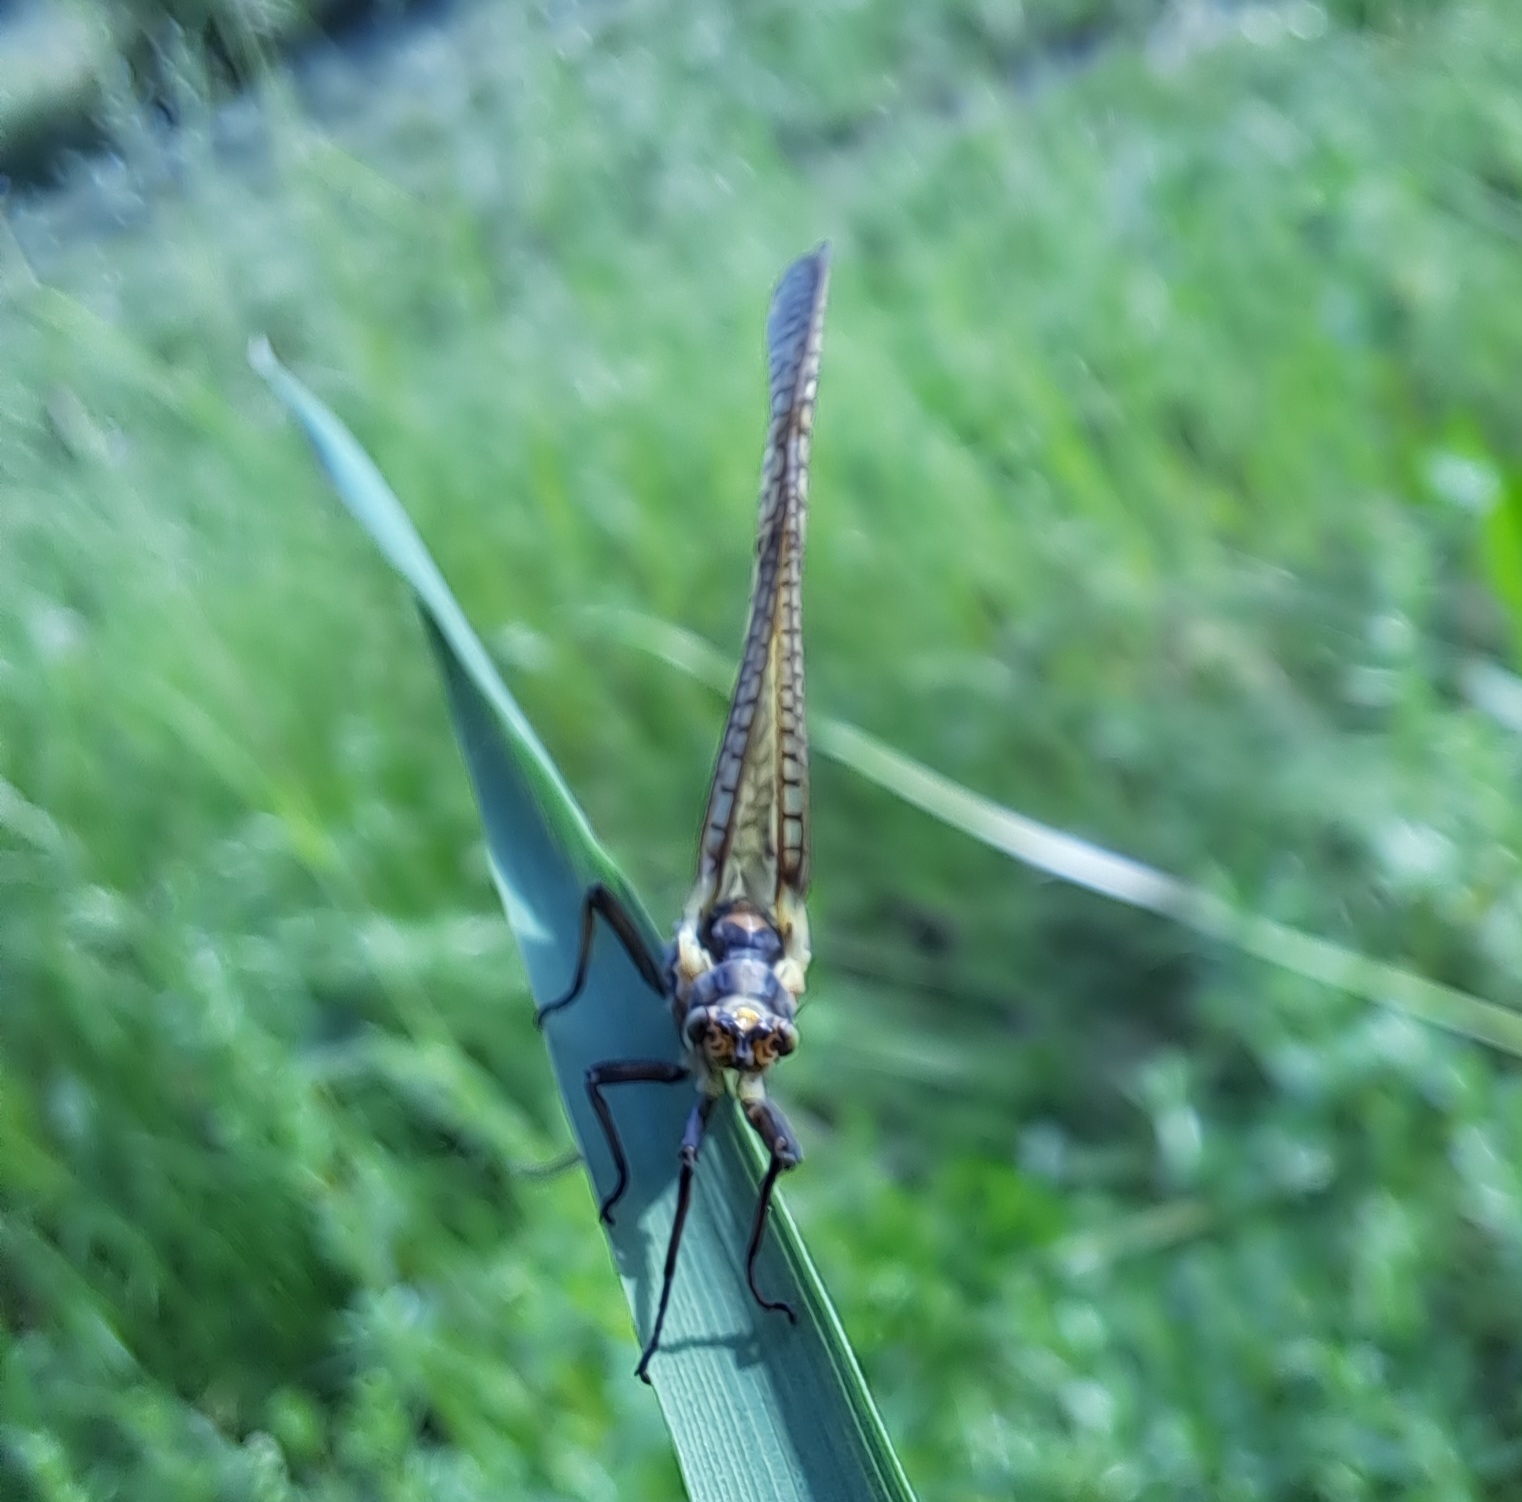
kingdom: Animalia
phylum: Arthropoda
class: Insecta
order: Ephemeroptera
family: Ephemeridae
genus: Ephemera
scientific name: Ephemera vulgata
